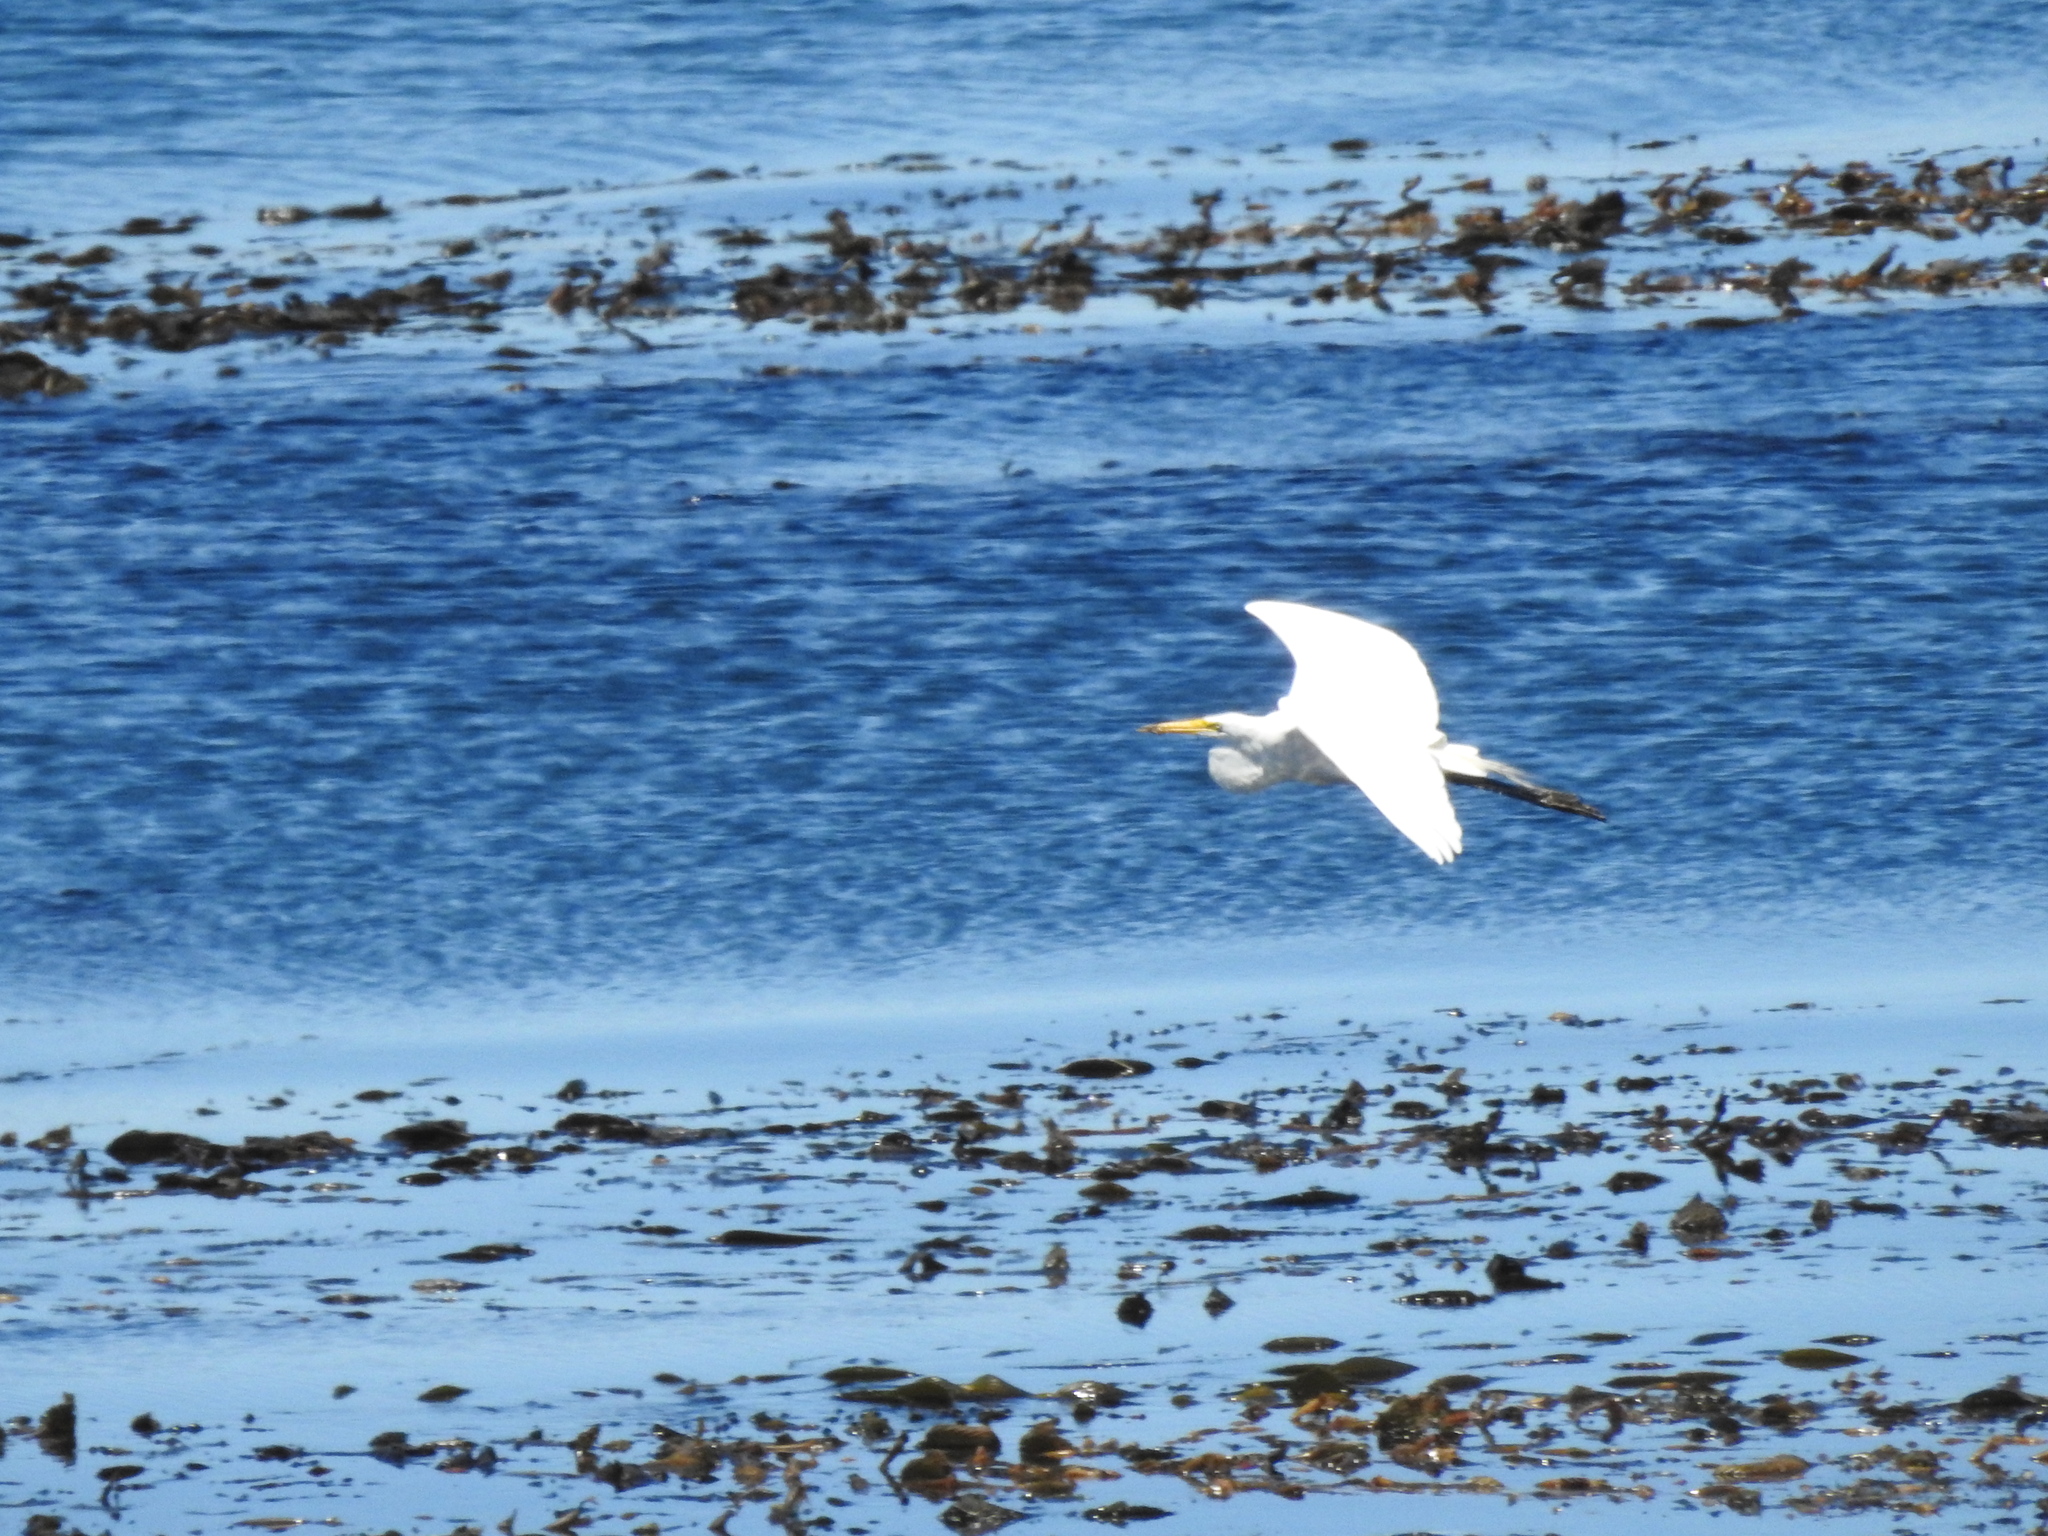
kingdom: Animalia
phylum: Chordata
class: Aves
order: Pelecaniformes
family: Ardeidae
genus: Ardea
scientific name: Ardea alba
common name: Great egret
